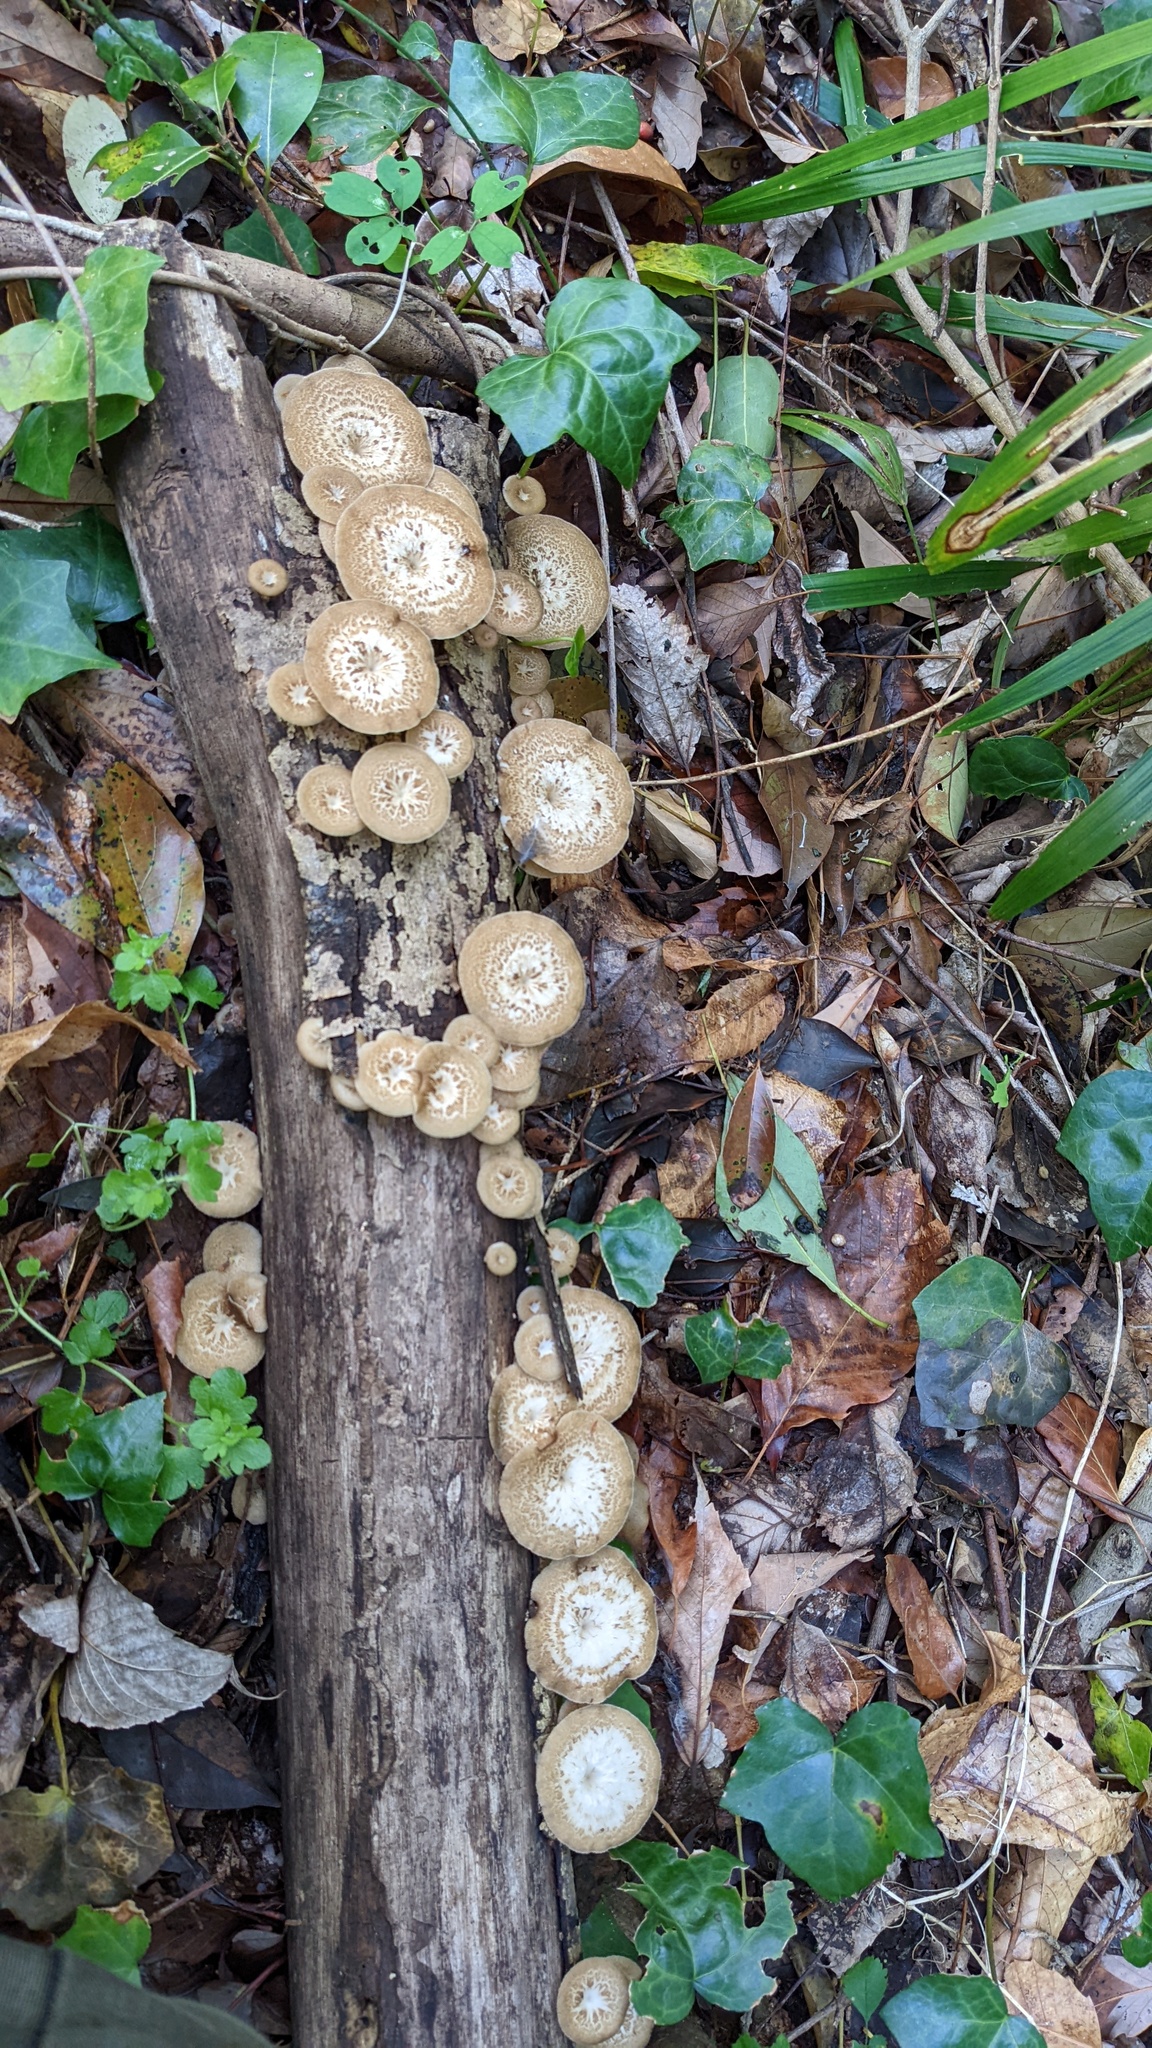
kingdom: Fungi
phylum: Basidiomycota
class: Agaricomycetes
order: Polyporales
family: Polyporaceae
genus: Lentinus
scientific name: Lentinus arcularius
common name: Spring polypore
